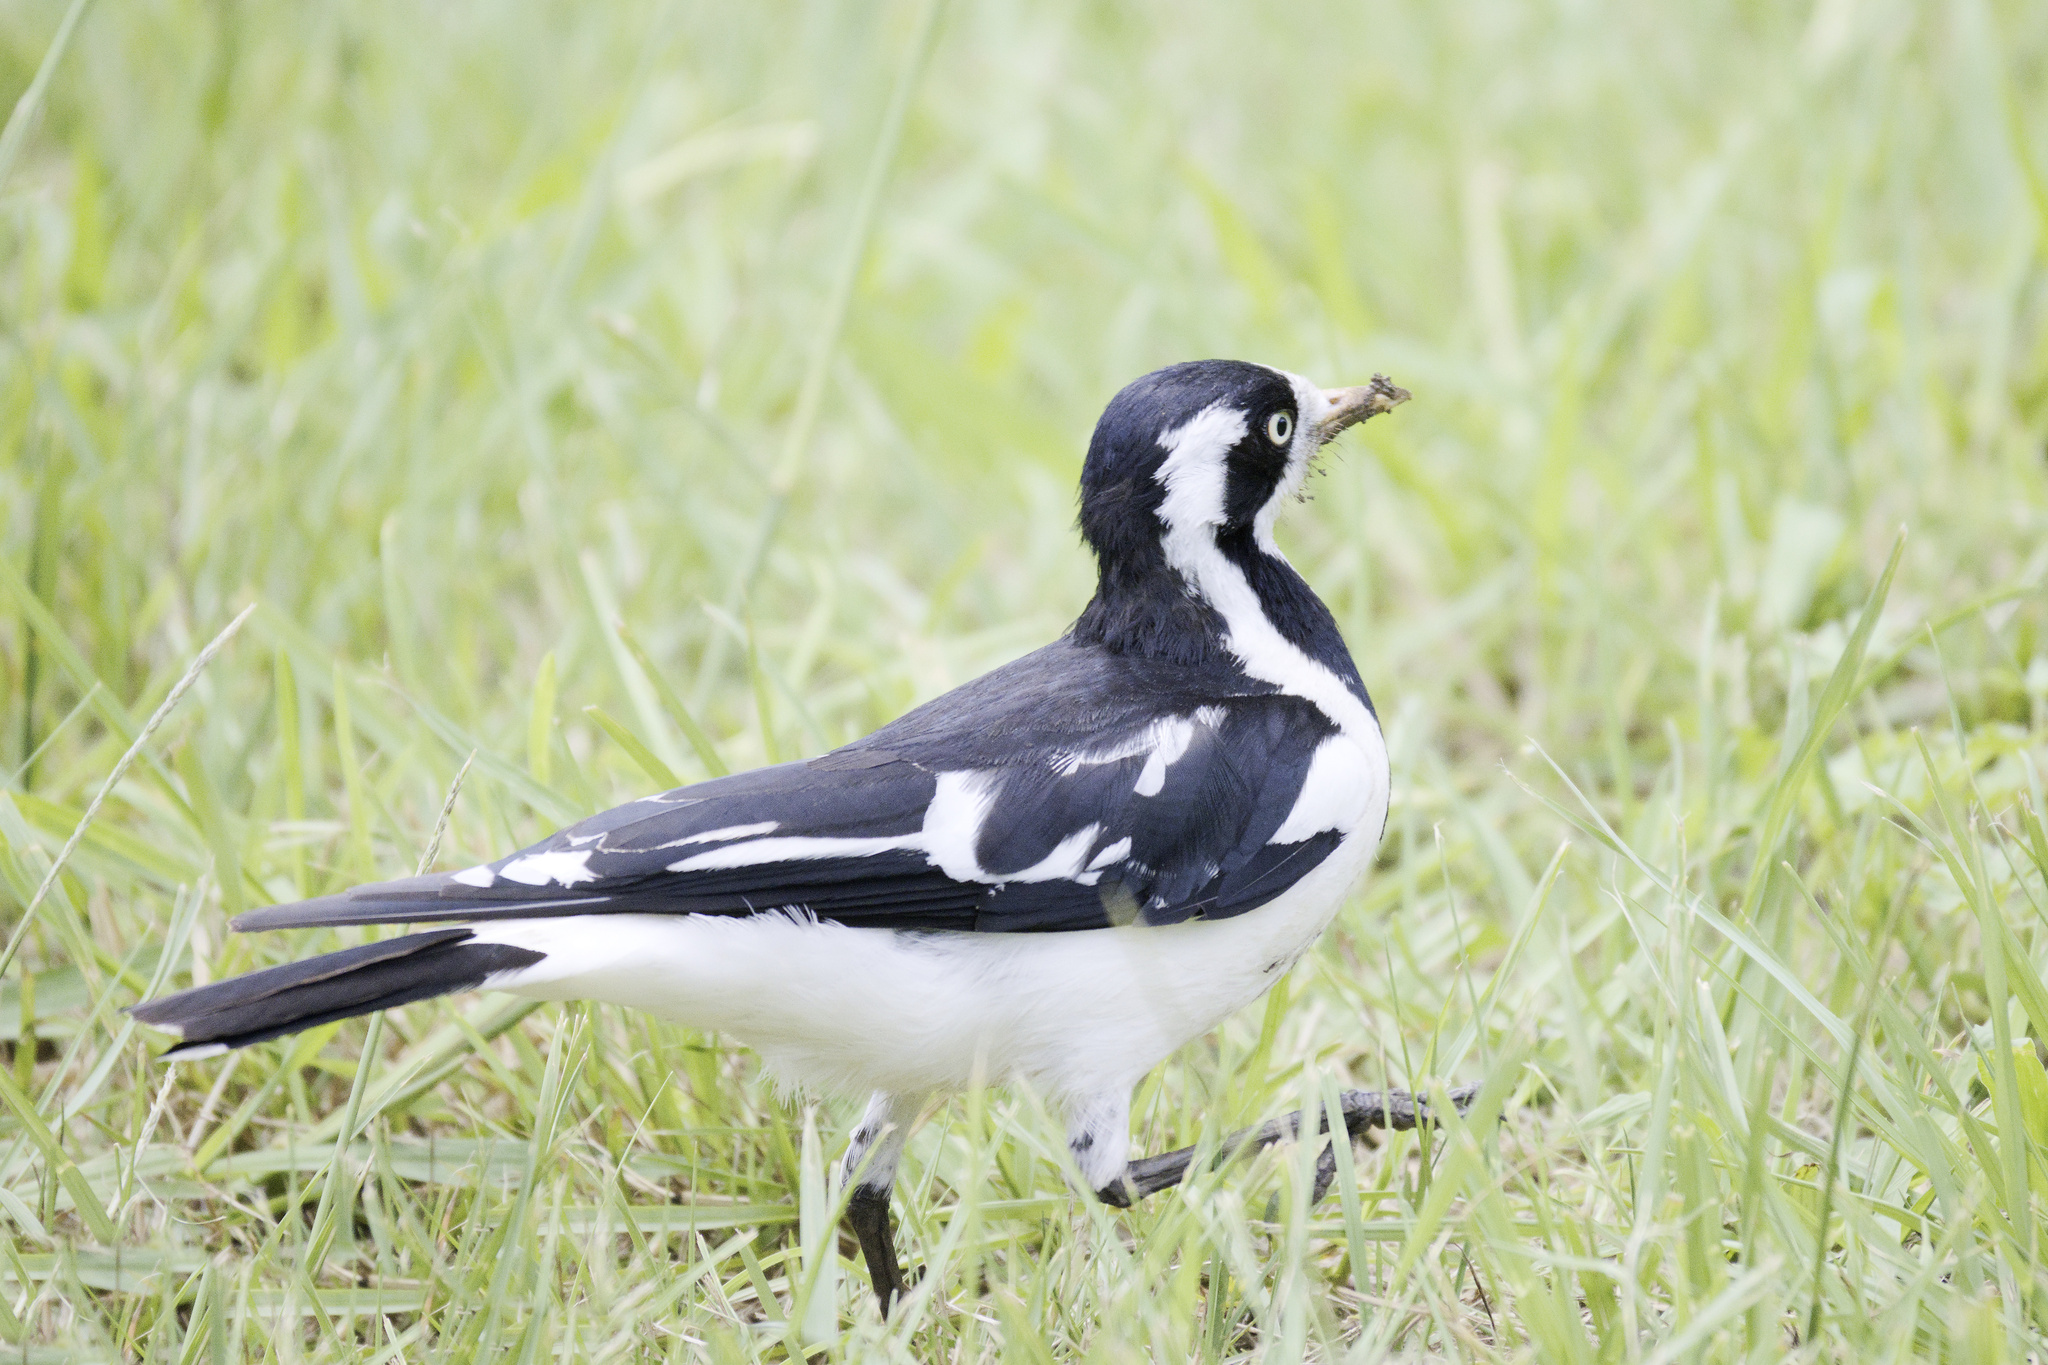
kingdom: Animalia
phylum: Chordata
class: Aves
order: Passeriformes
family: Monarchidae
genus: Grallina
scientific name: Grallina cyanoleuca
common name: Magpie-lark
